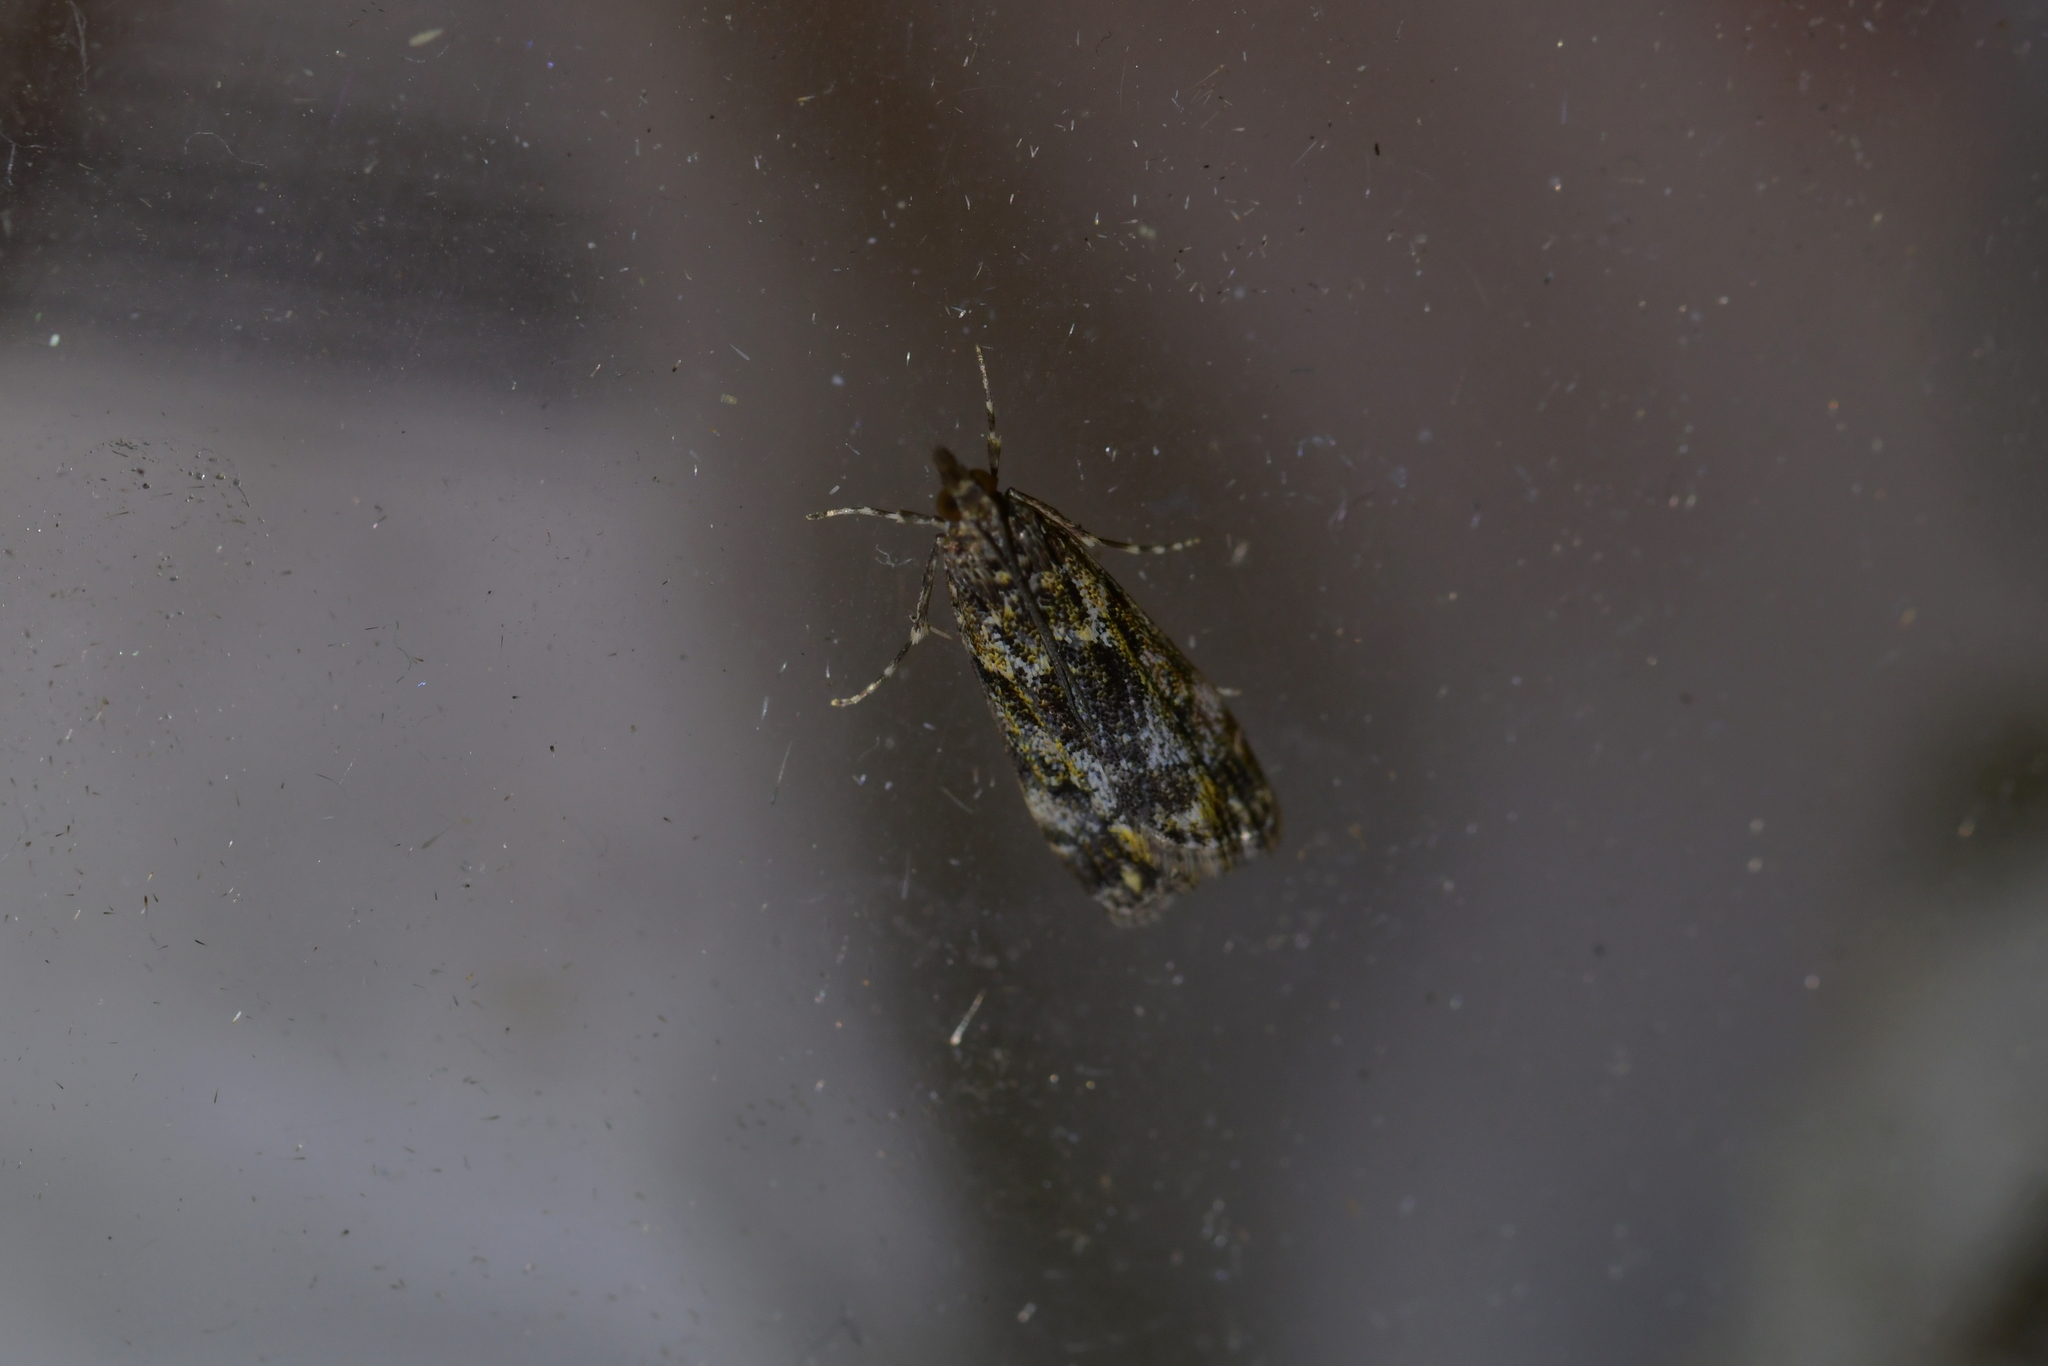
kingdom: Animalia
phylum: Arthropoda
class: Insecta
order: Lepidoptera
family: Crambidae
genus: Eudonia
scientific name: Eudonia minualis
